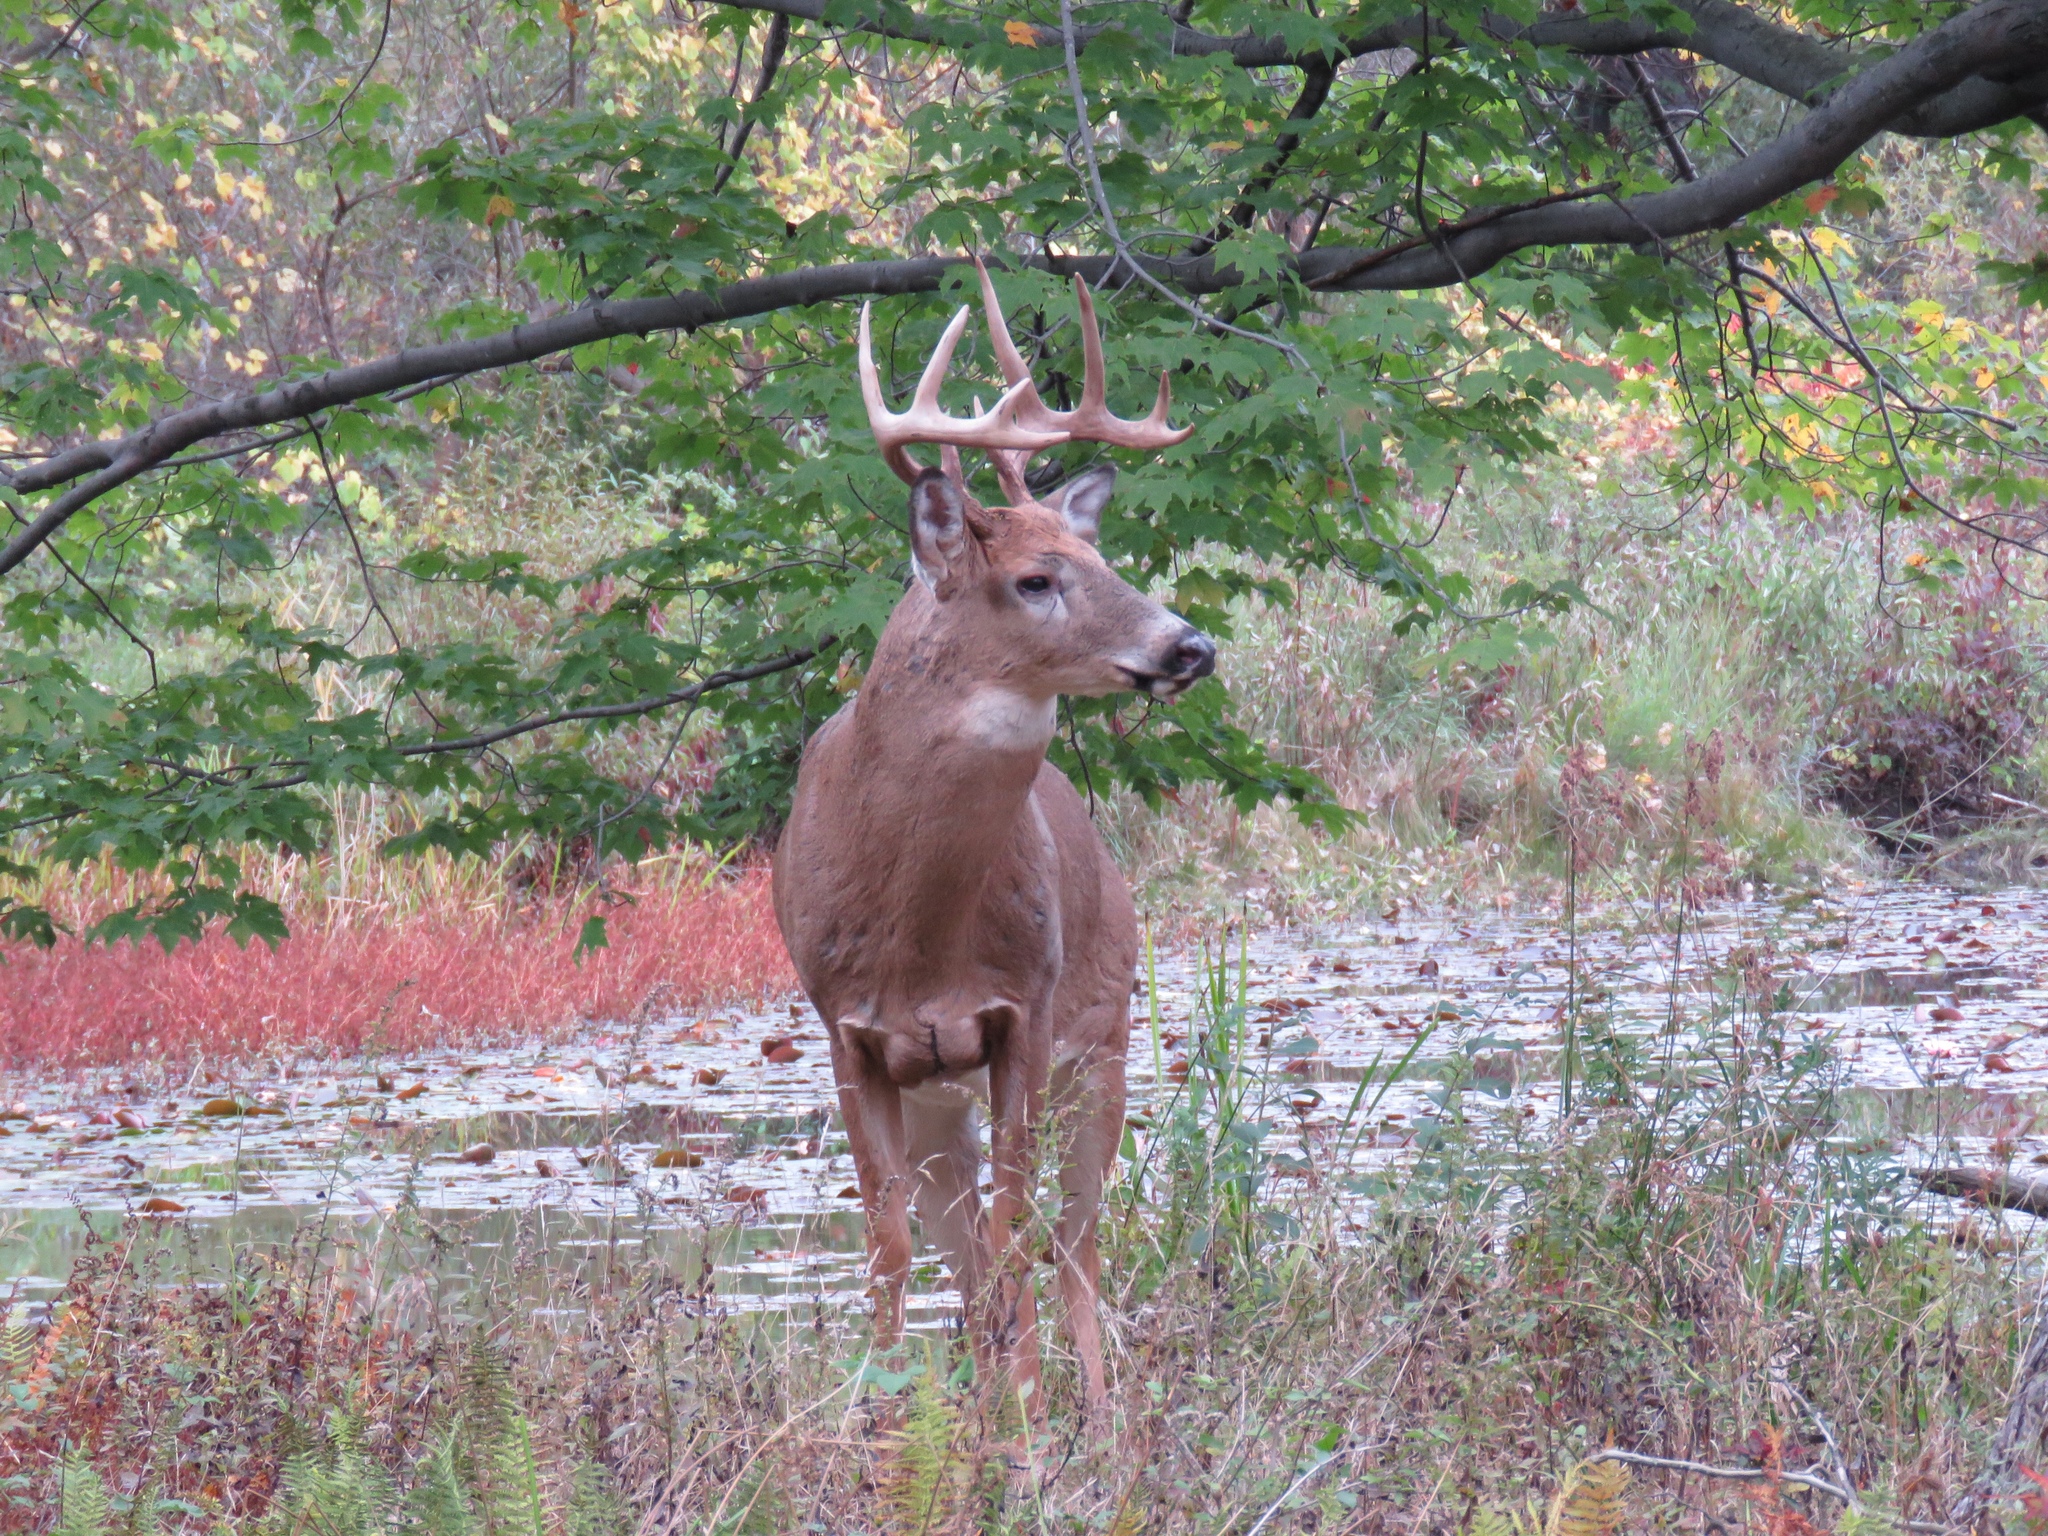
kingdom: Animalia
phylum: Chordata
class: Mammalia
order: Artiodactyla
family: Cervidae
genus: Odocoileus
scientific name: Odocoileus virginianus
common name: White-tailed deer
